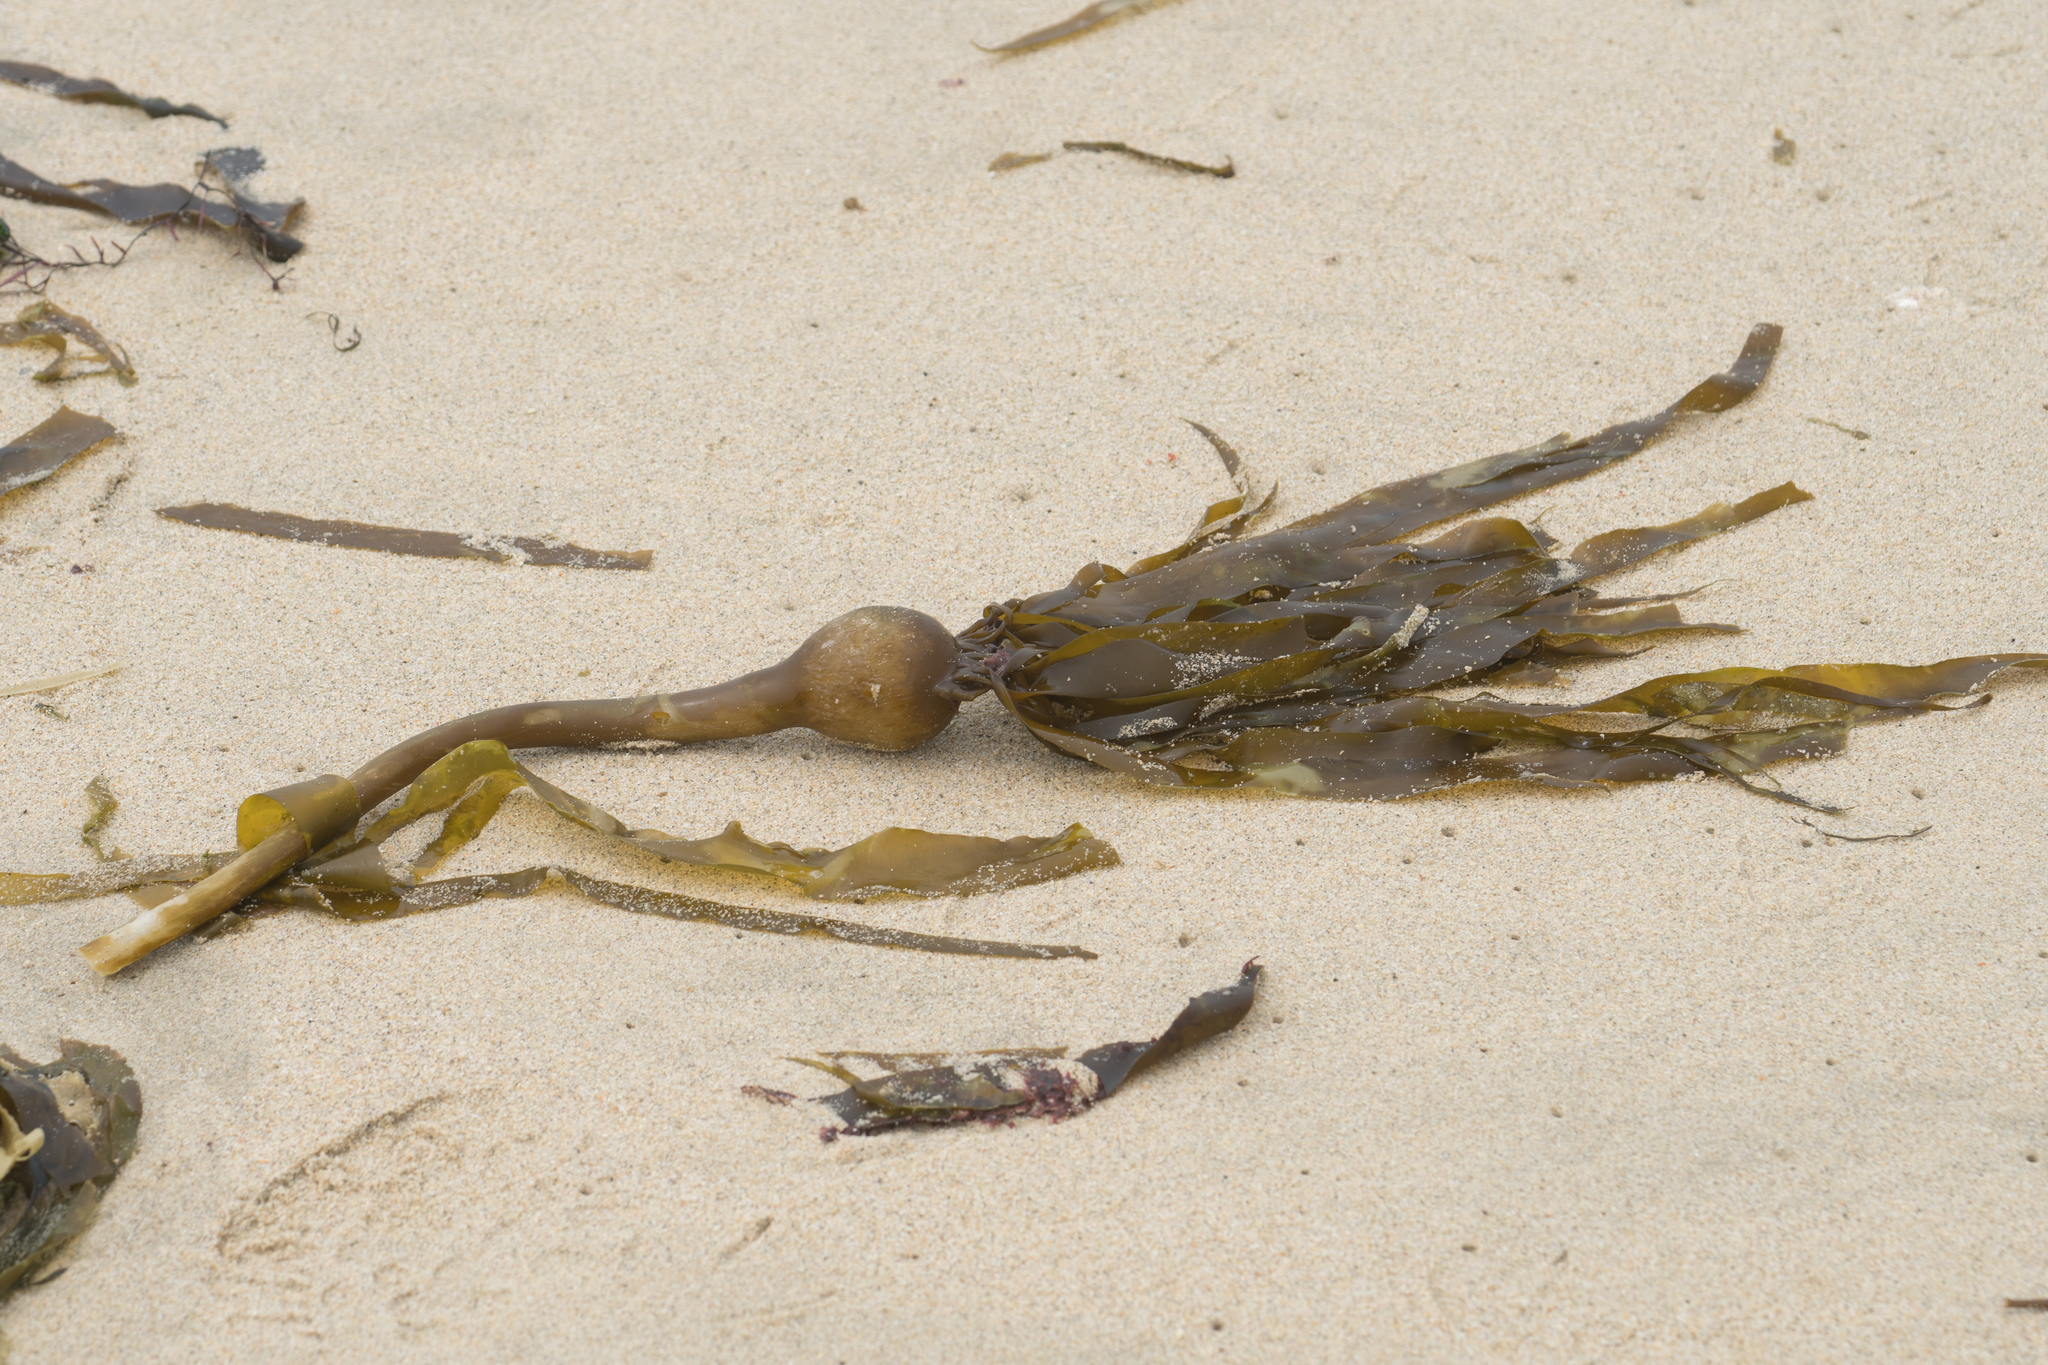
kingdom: Chromista
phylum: Ochrophyta
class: Phaeophyceae
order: Laminariales
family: Laminariaceae
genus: Nereocystis
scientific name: Nereocystis luetkeana
